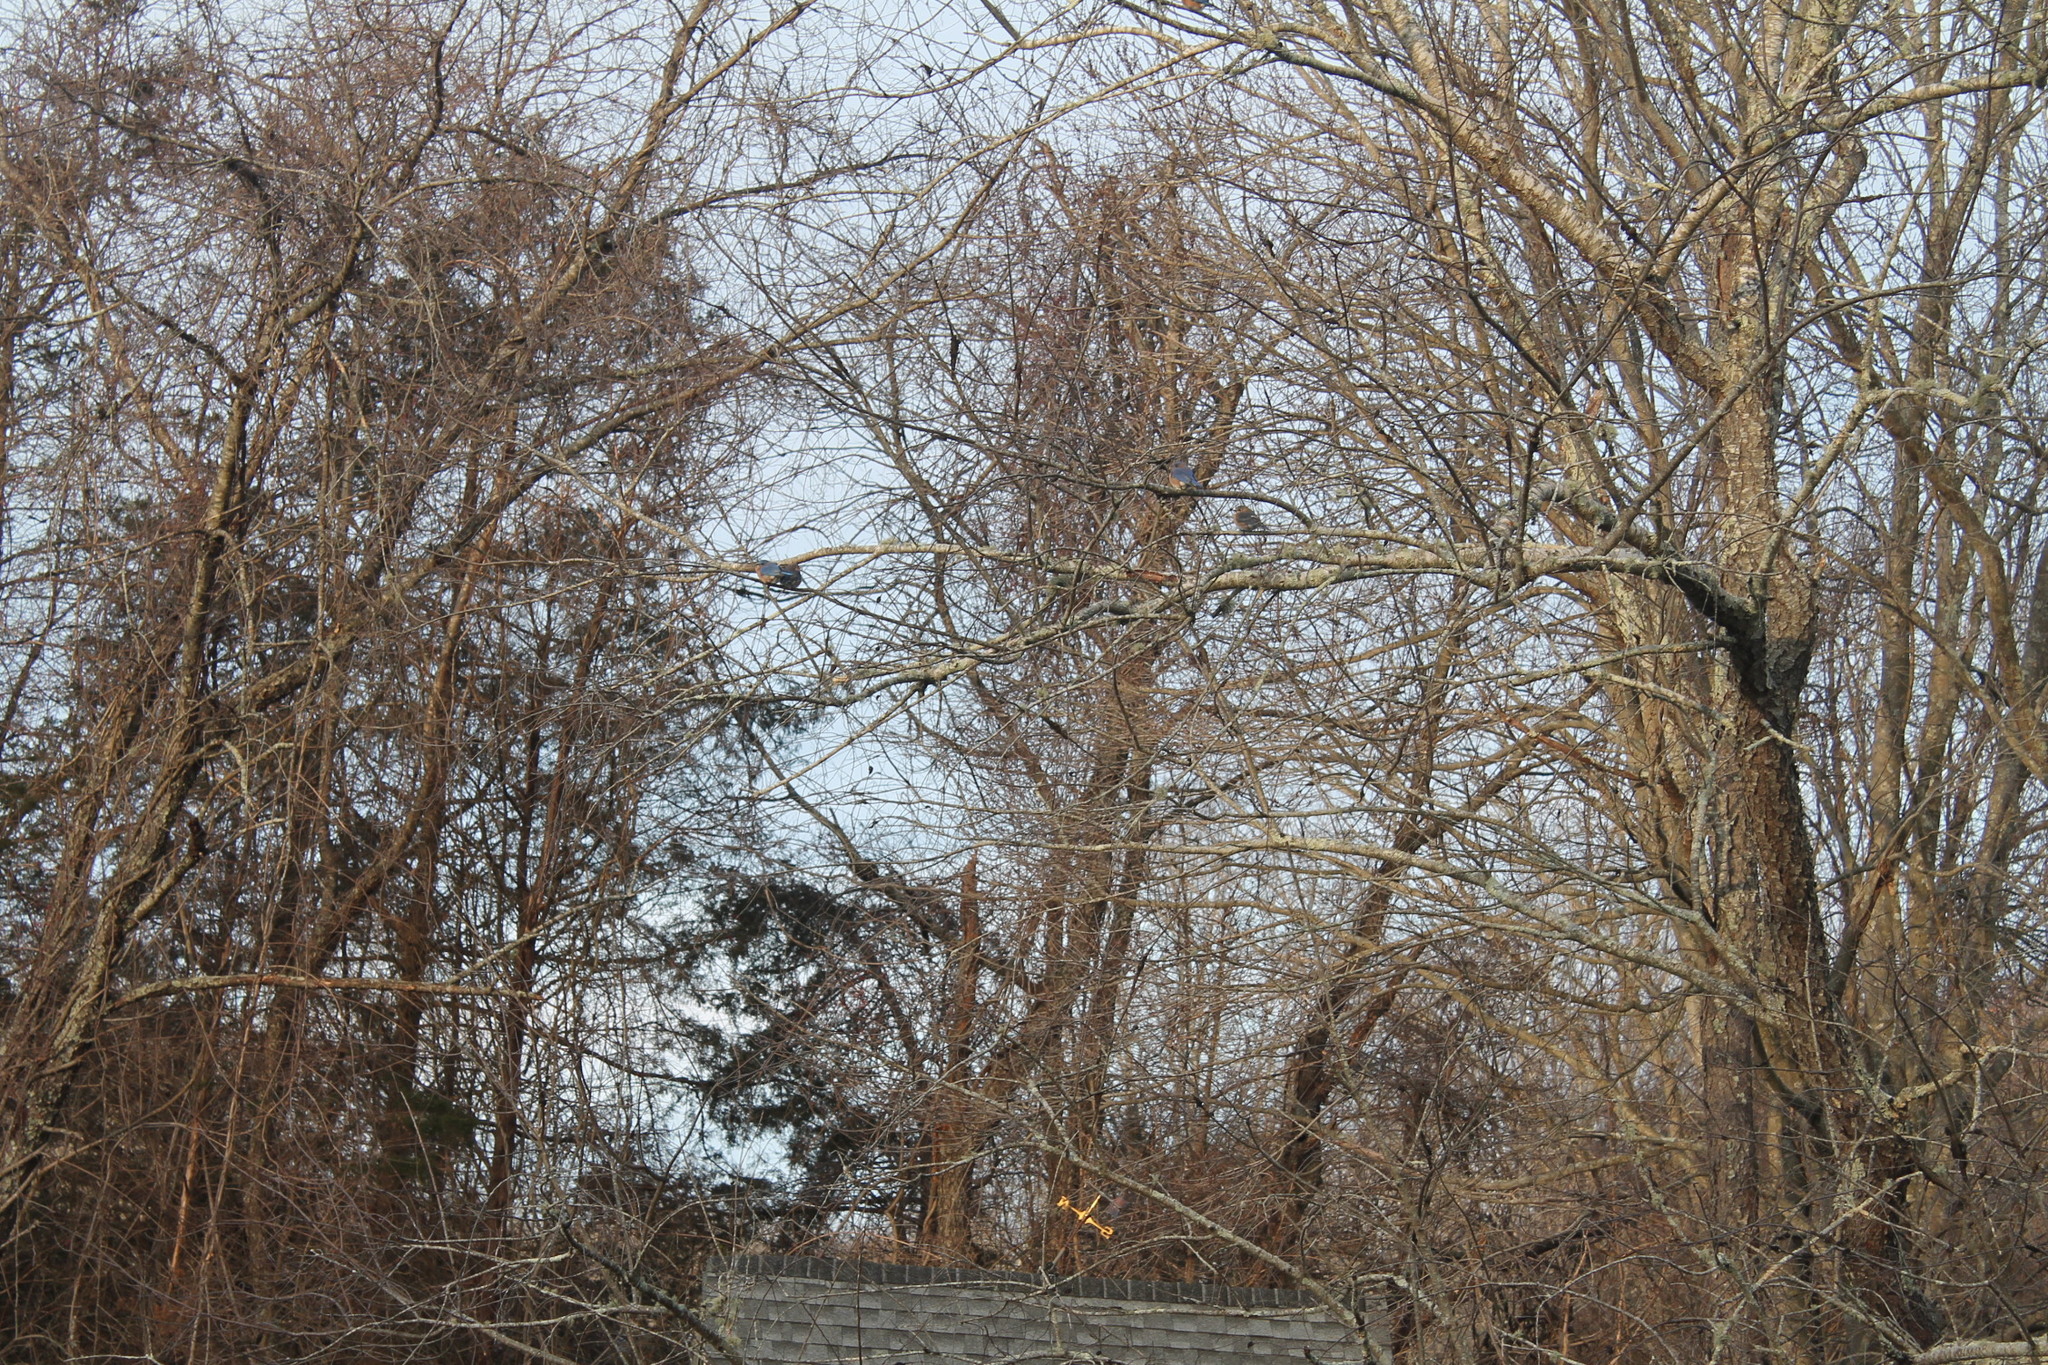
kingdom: Animalia
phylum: Chordata
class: Aves
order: Passeriformes
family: Turdidae
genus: Sialia
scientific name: Sialia sialis
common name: Eastern bluebird
